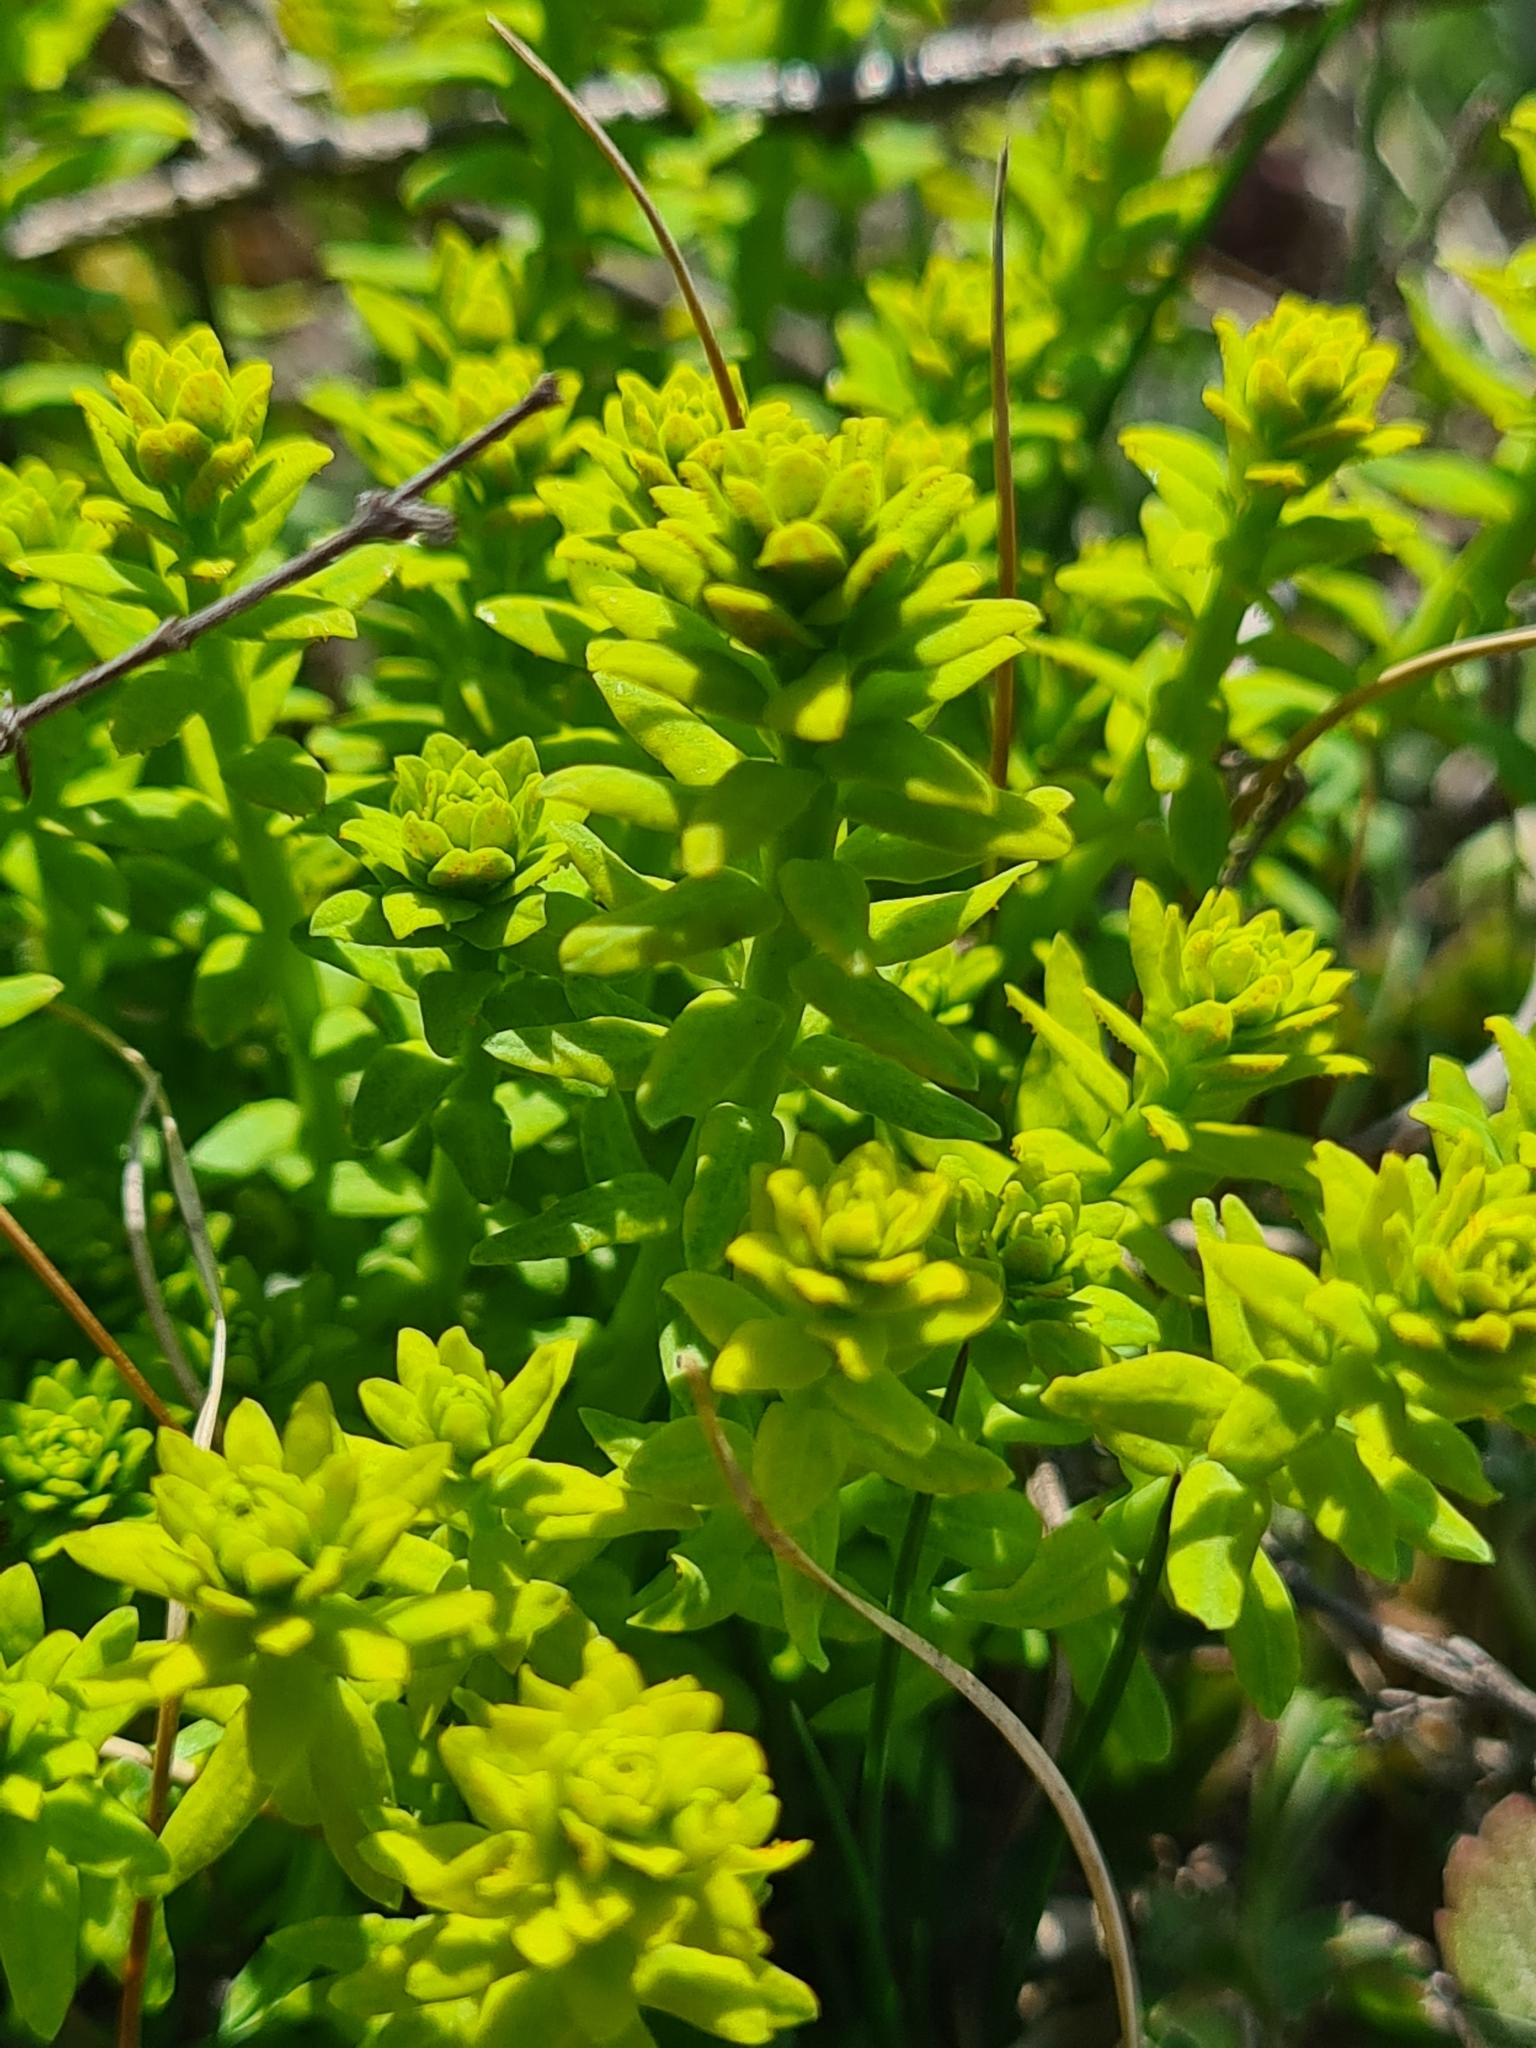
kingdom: Plantae
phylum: Tracheophyta
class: Magnoliopsida
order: Malpighiales
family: Euphorbiaceae
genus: Euphorbia
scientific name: Euphorbia cyparissias
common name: Cypress spurge
